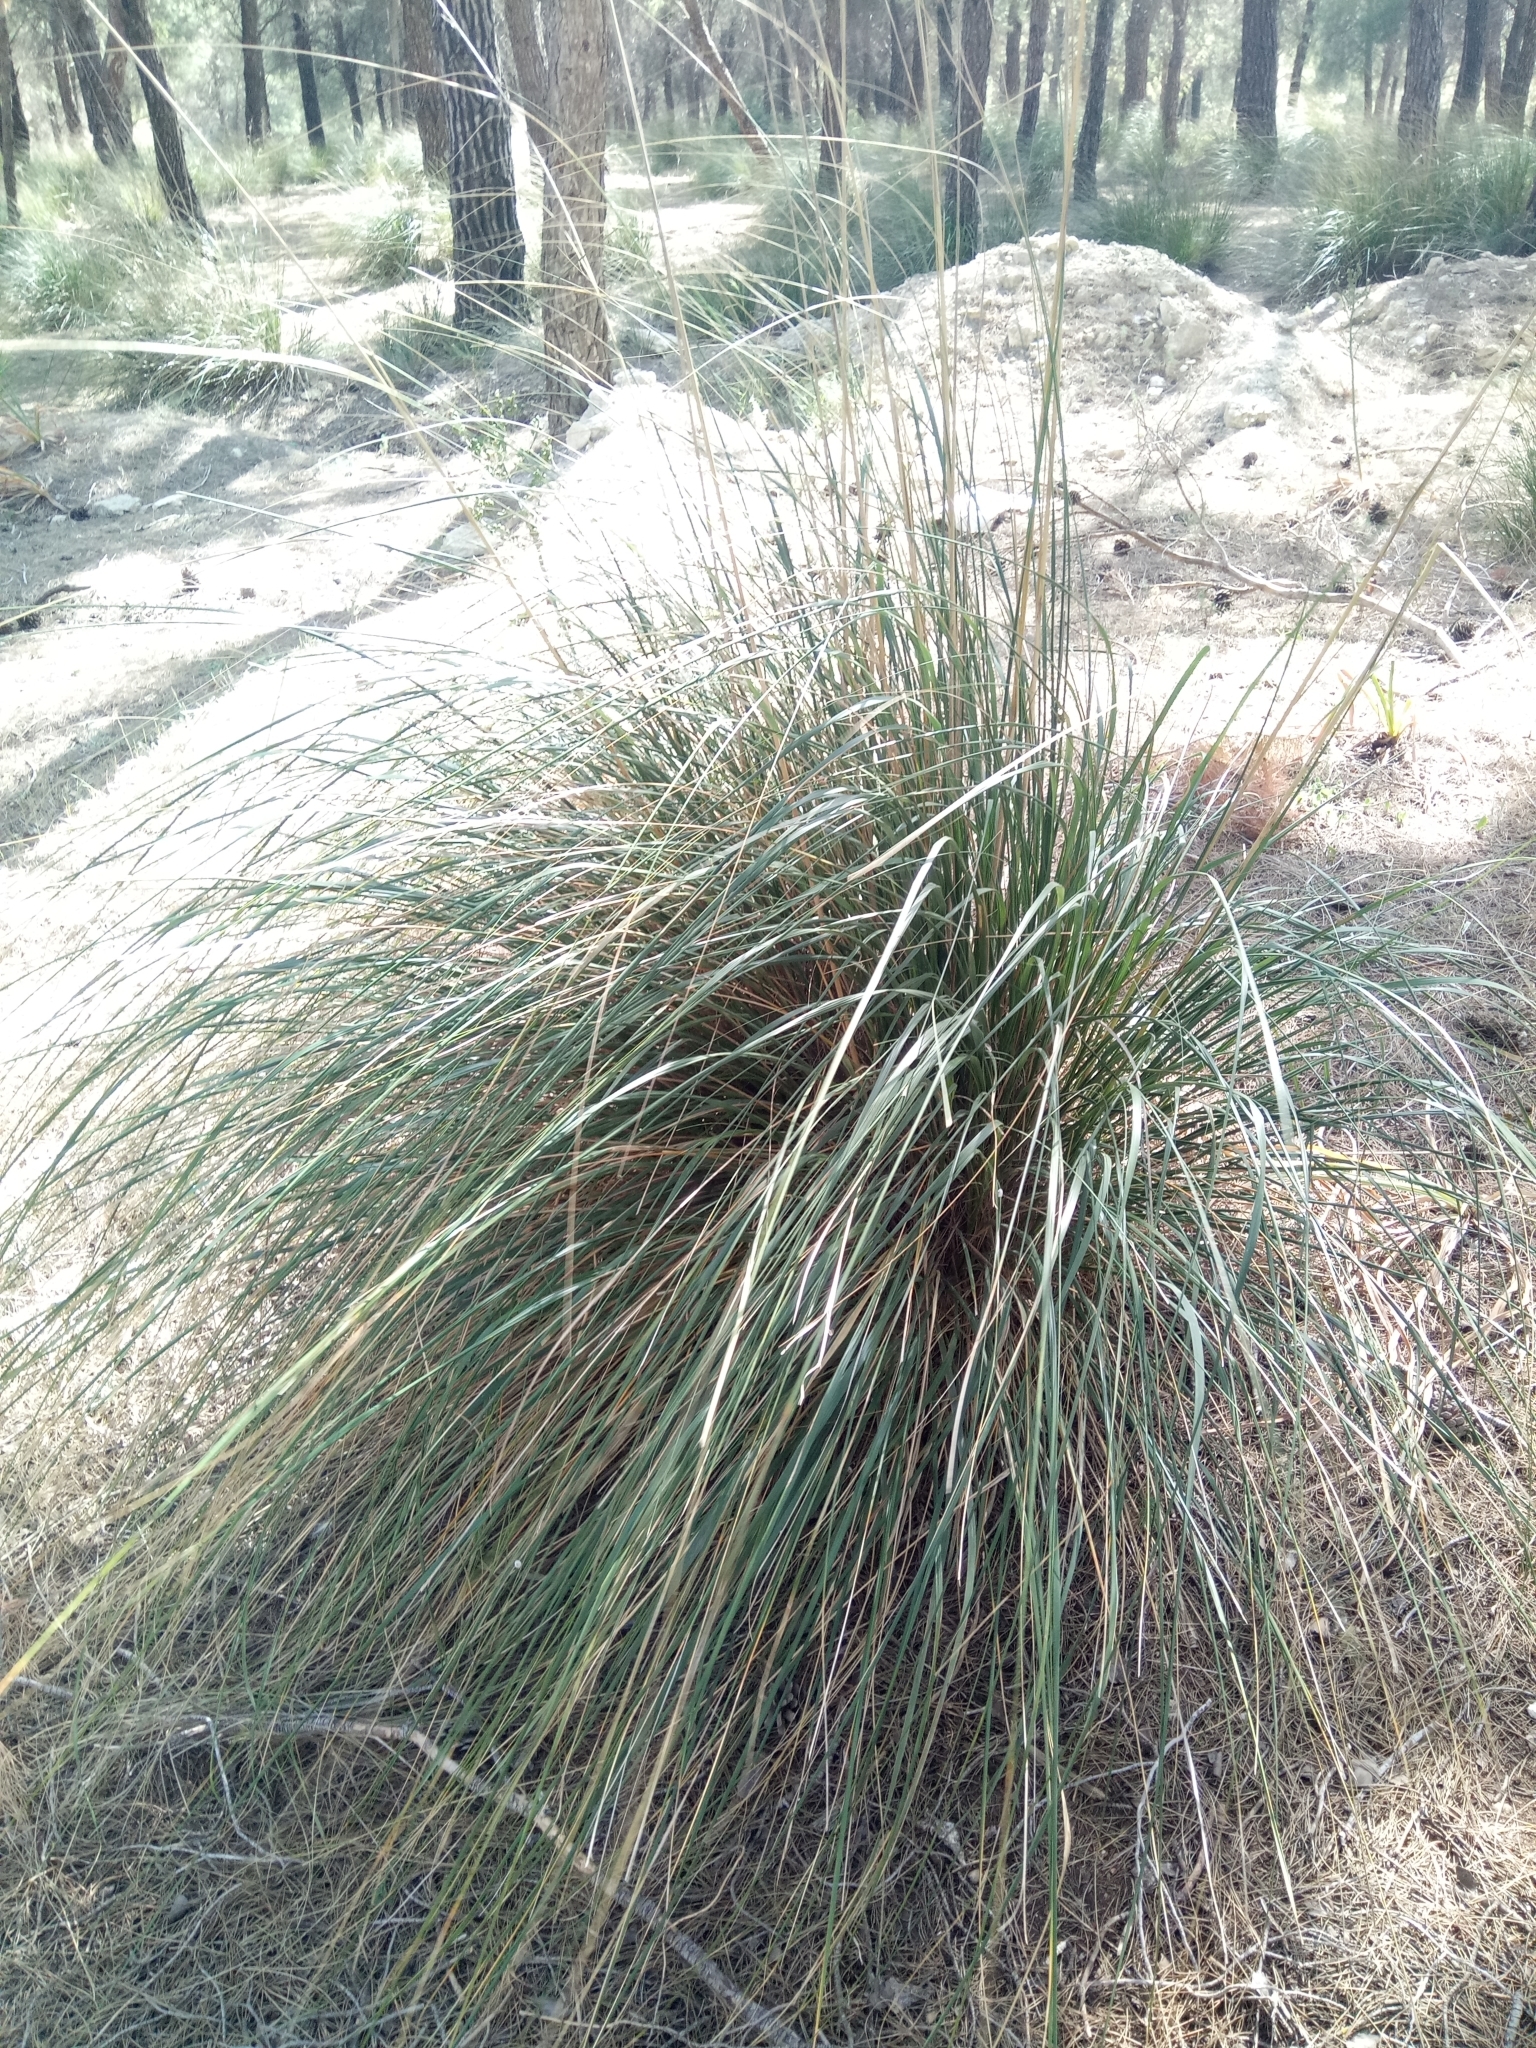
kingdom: Plantae
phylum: Tracheophyta
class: Liliopsida
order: Poales
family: Poaceae
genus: Ampelodesmos
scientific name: Ampelodesmos mauritanicus
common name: Mauritanian grass
